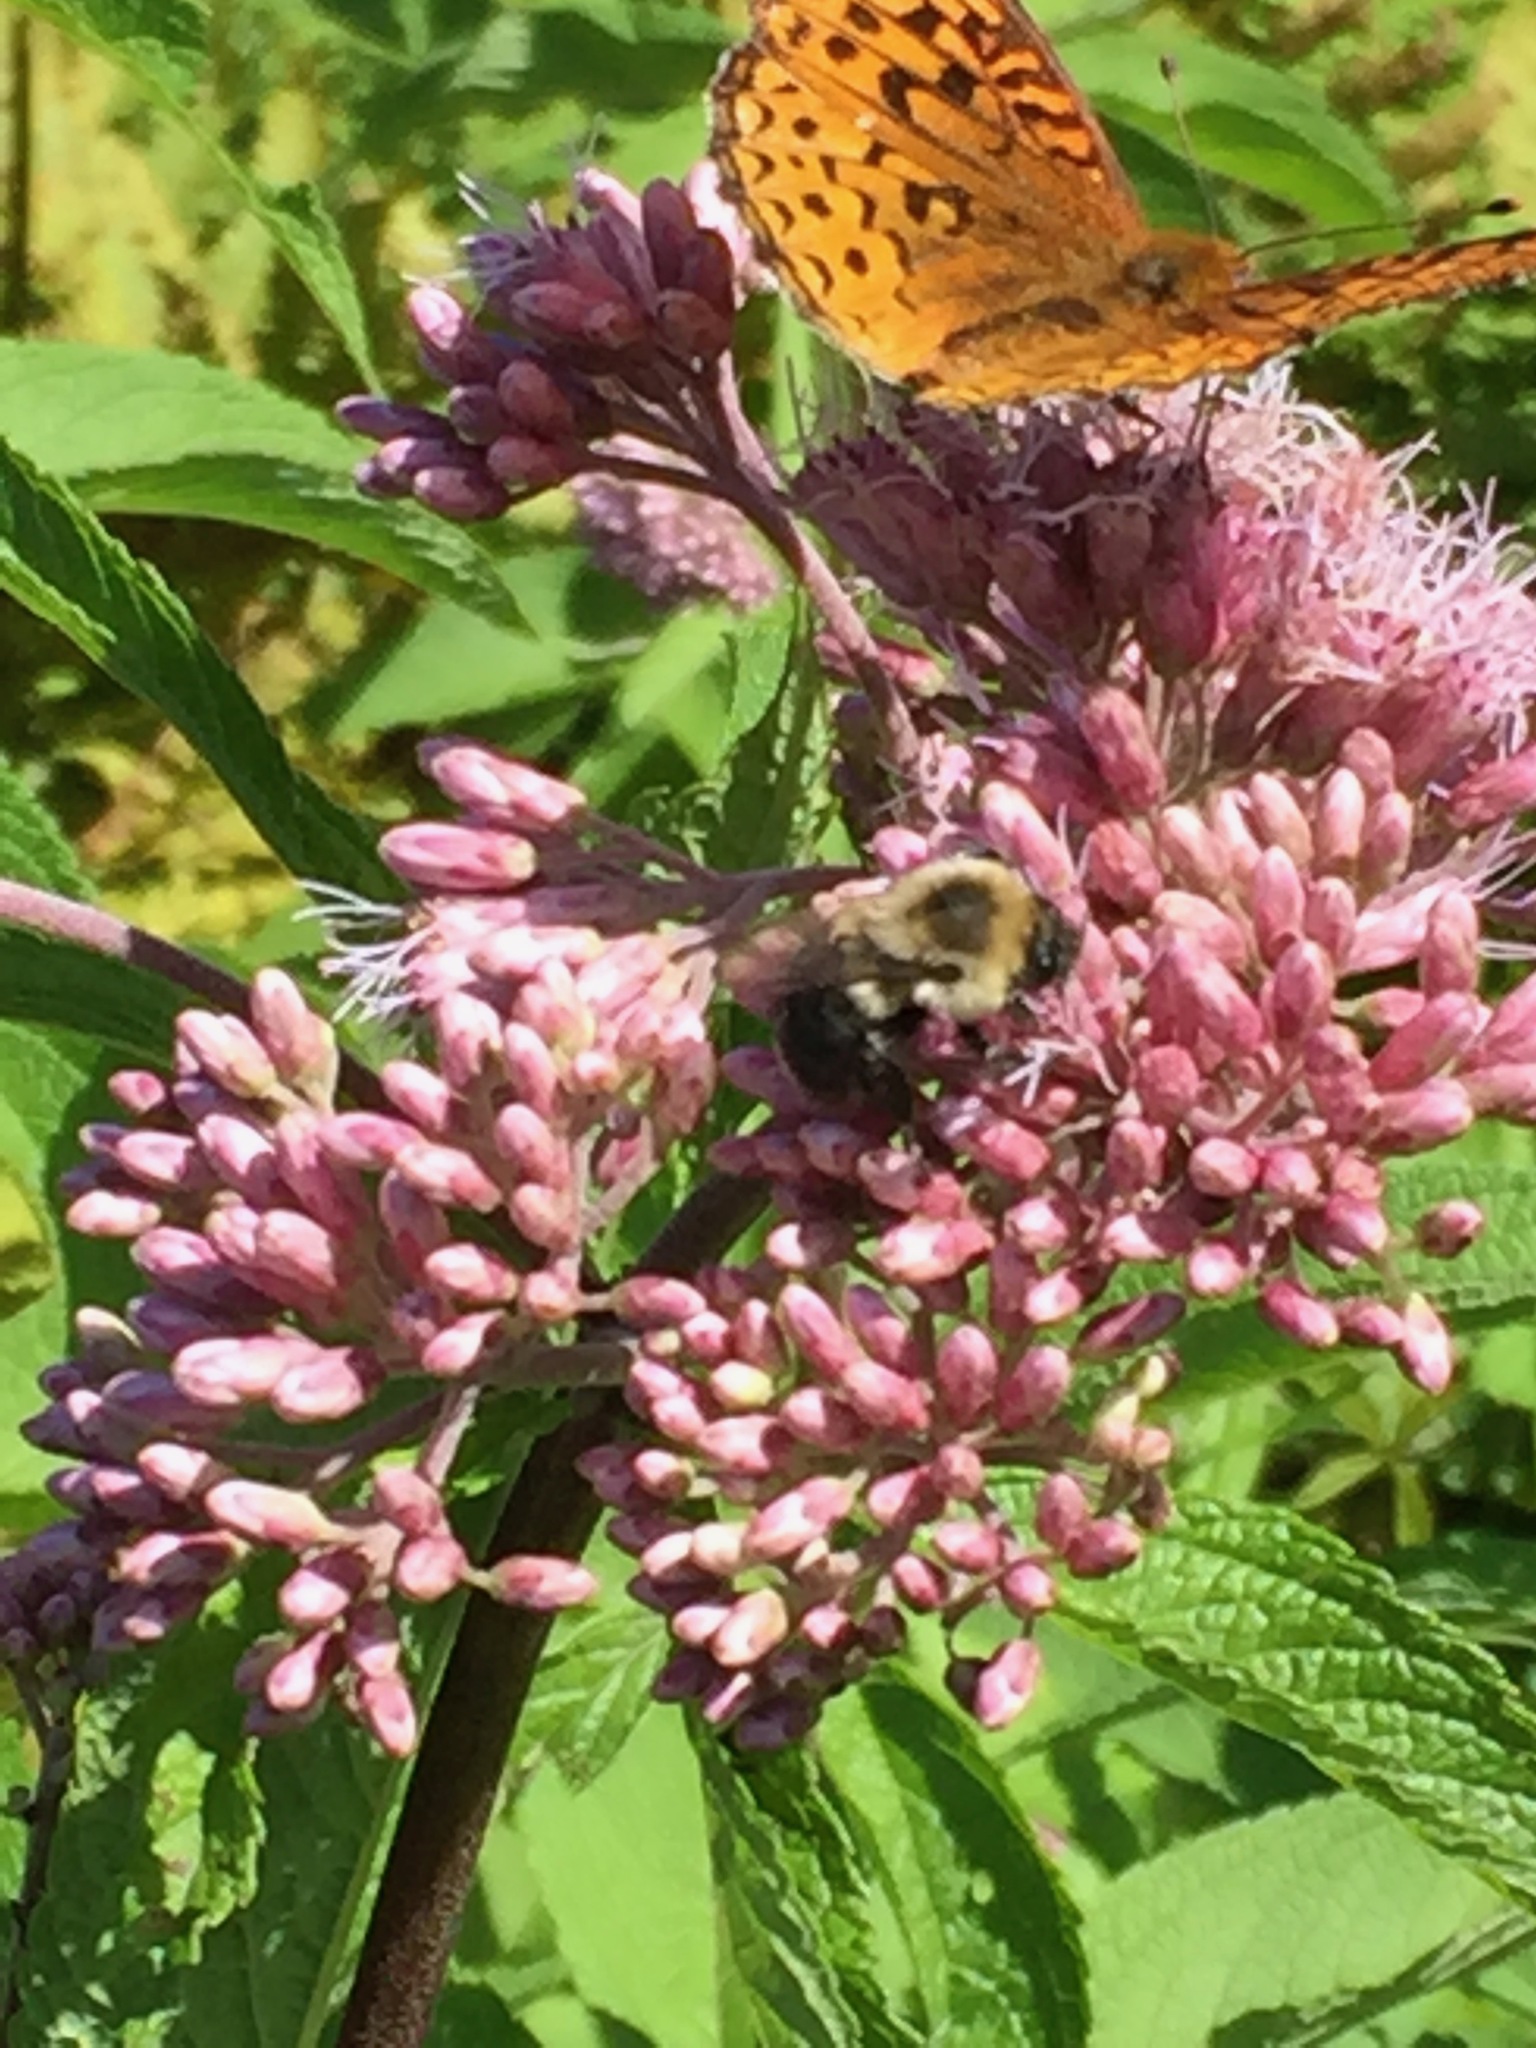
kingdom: Animalia
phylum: Arthropoda
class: Insecta
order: Hymenoptera
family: Apidae
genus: Bombus
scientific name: Bombus impatiens
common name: Common eastern bumble bee
